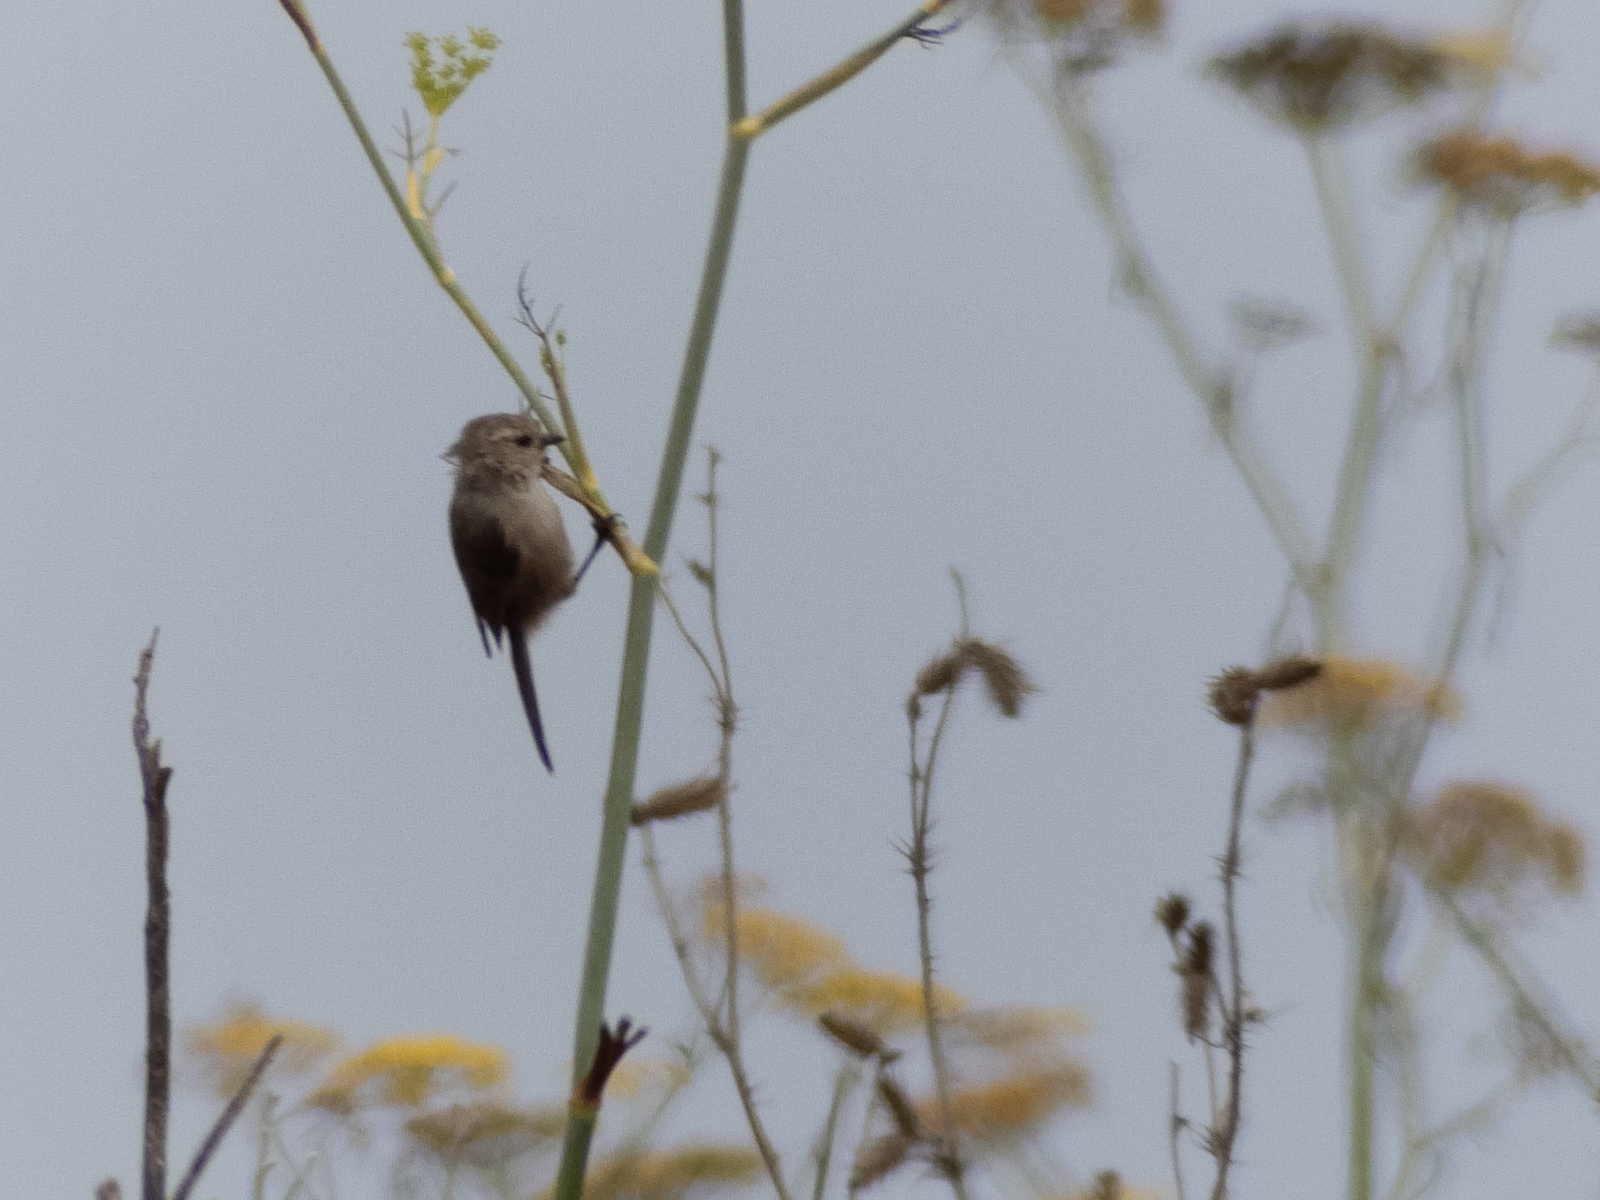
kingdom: Animalia
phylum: Chordata
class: Aves
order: Passeriformes
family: Aegithalidae
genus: Psaltriparus
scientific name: Psaltriparus minimus
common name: American bushtit
